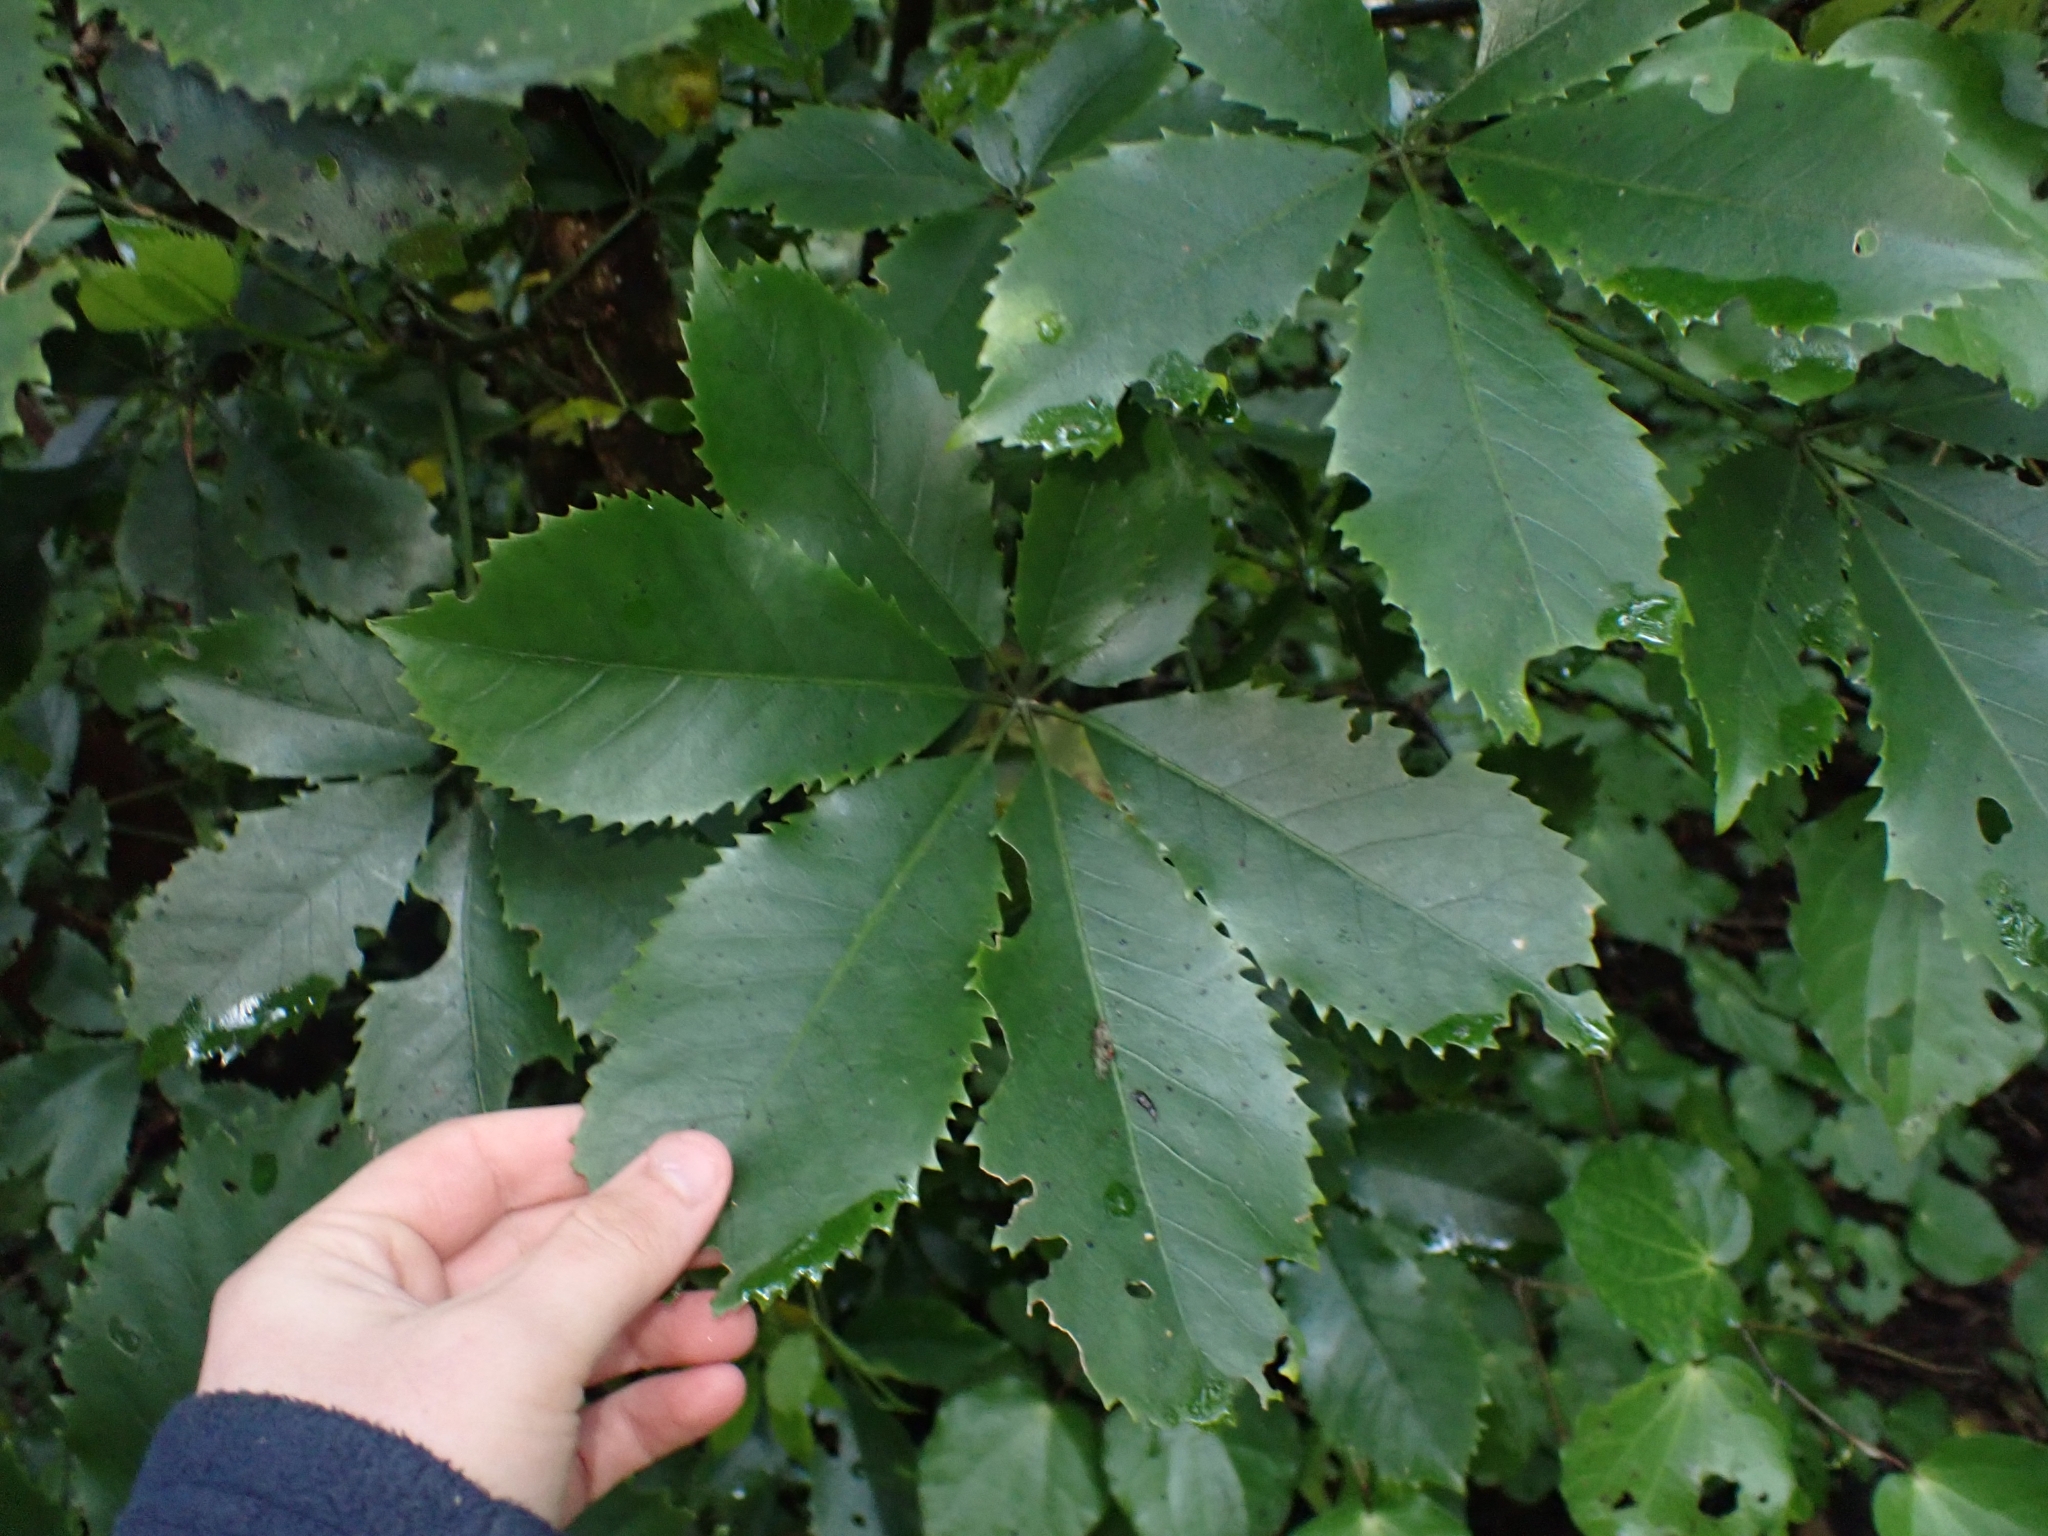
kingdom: Plantae
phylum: Tracheophyta
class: Magnoliopsida
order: Apiales
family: Araliaceae
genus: Neopanax
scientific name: Neopanax arboreus
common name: Five-fingers
